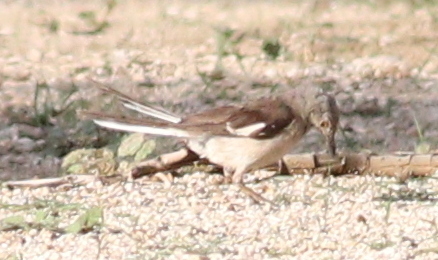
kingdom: Animalia
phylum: Chordata
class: Aves
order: Passeriformes
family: Mimidae
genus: Mimus
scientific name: Mimus polyglottos
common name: Northern mockingbird
